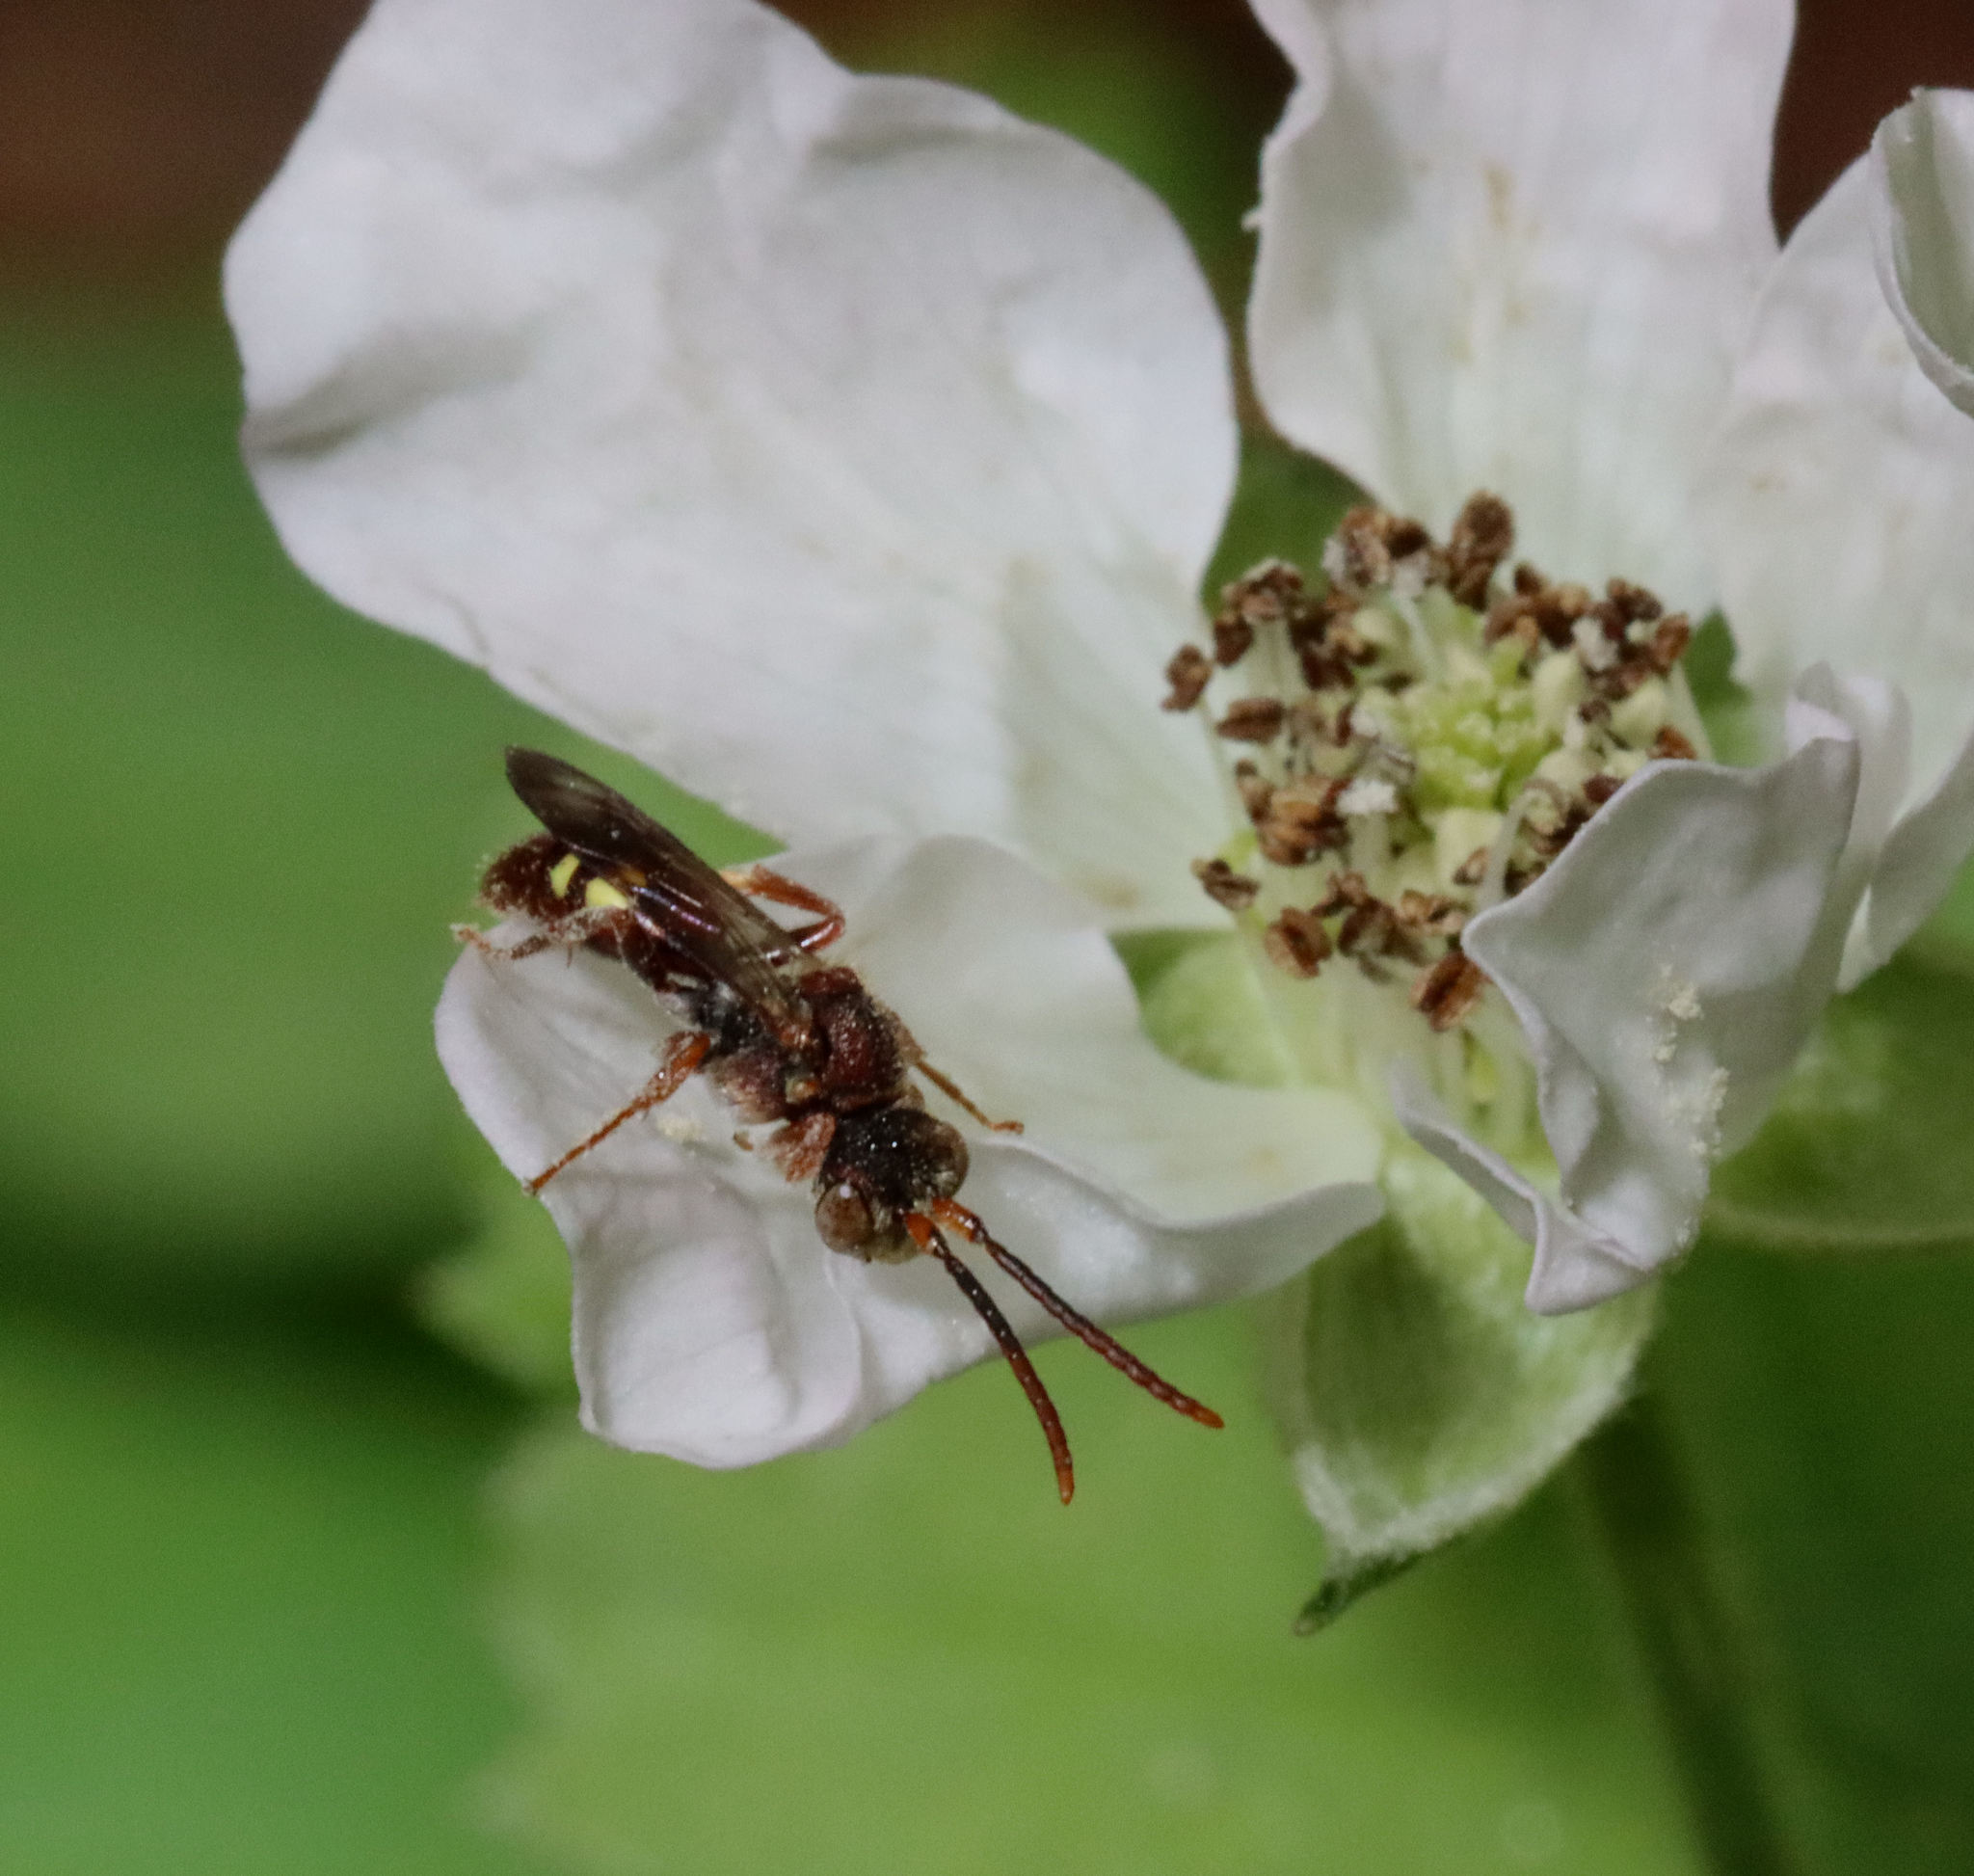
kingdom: Animalia
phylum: Arthropoda
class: Insecta
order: Hymenoptera
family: Apidae
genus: Nomada
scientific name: Nomada
